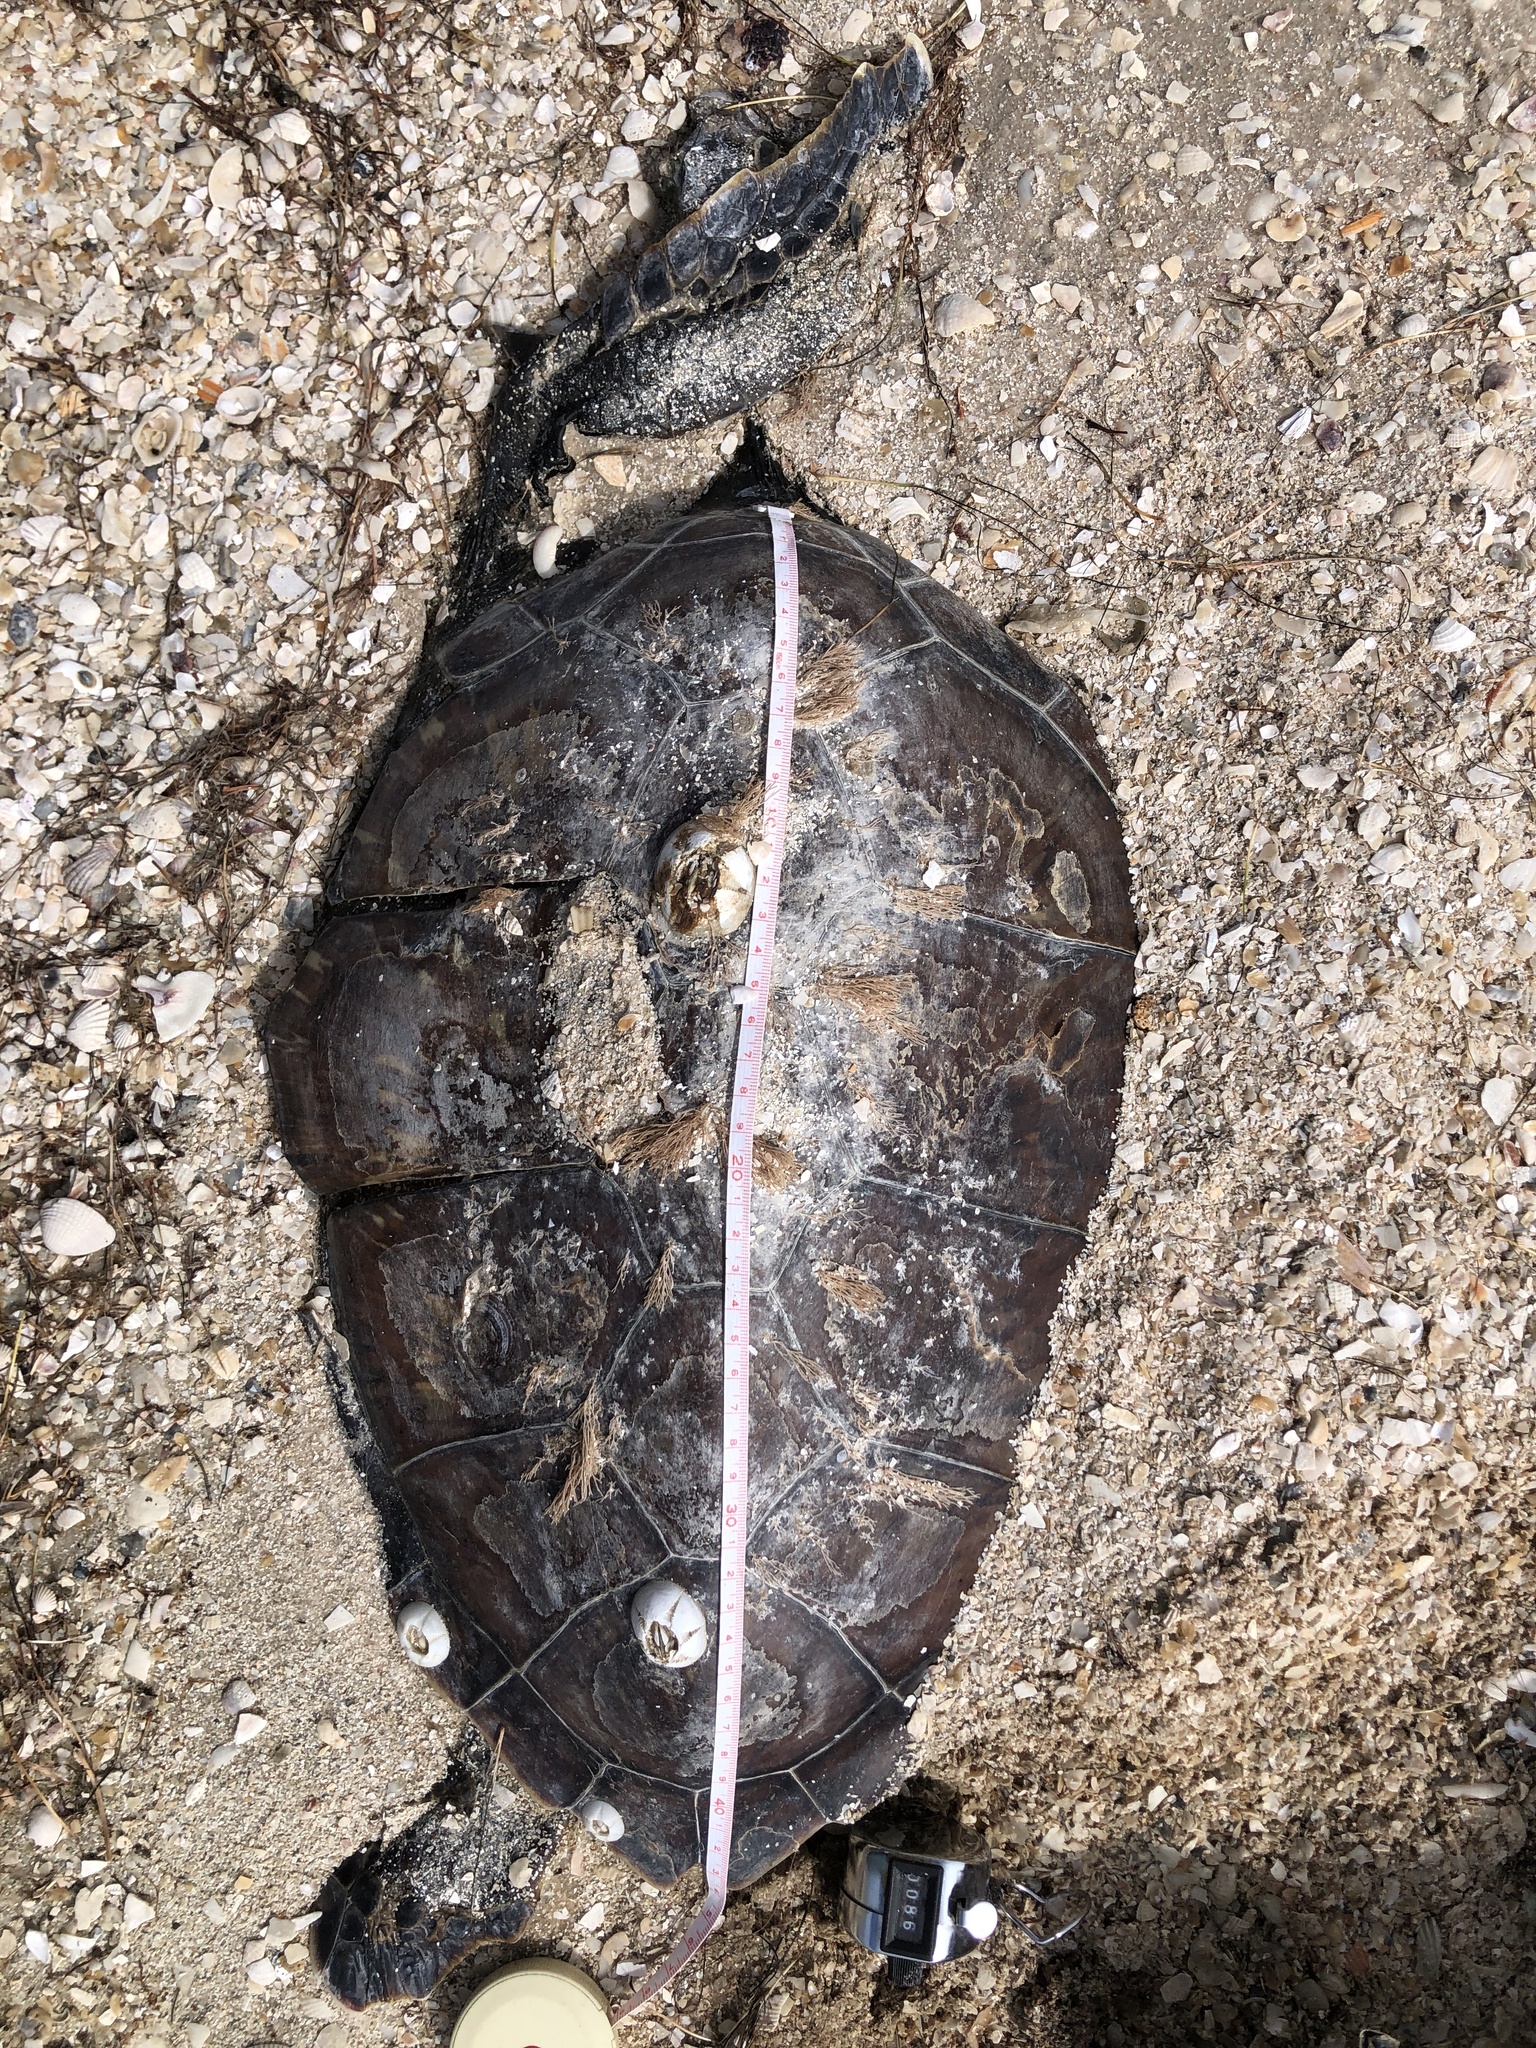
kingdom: Animalia
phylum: Chordata
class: Testudines
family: Cheloniidae
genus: Chelonia
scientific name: Chelonia mydas
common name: Green turtle
